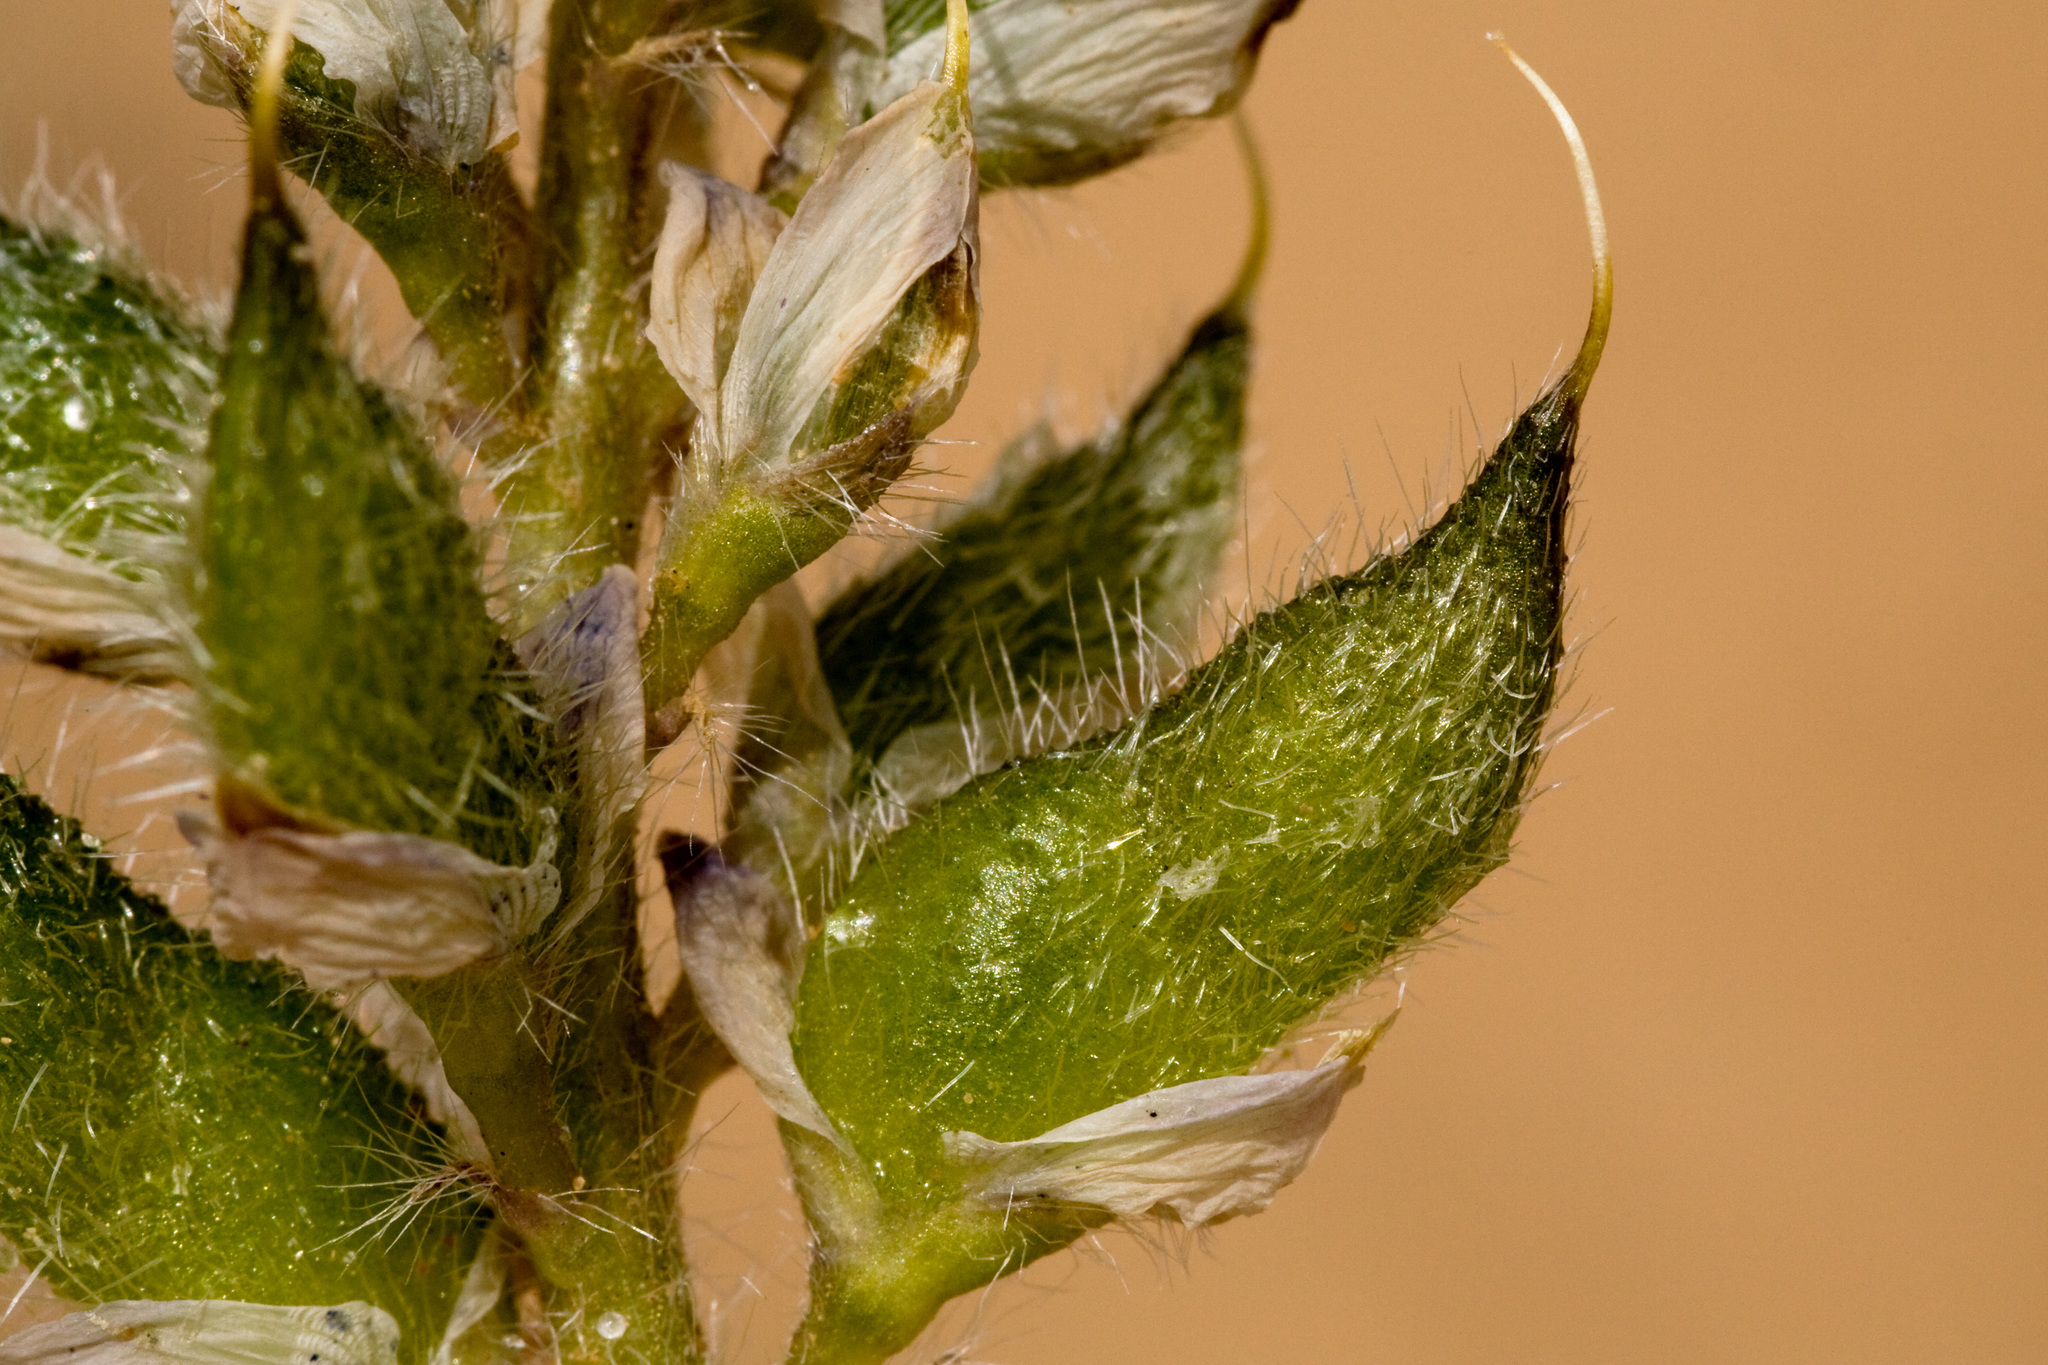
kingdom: Plantae
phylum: Tracheophyta
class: Magnoliopsida
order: Fabales
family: Fabaceae
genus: Lupinus
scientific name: Lupinus pusillus
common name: Low lupine
